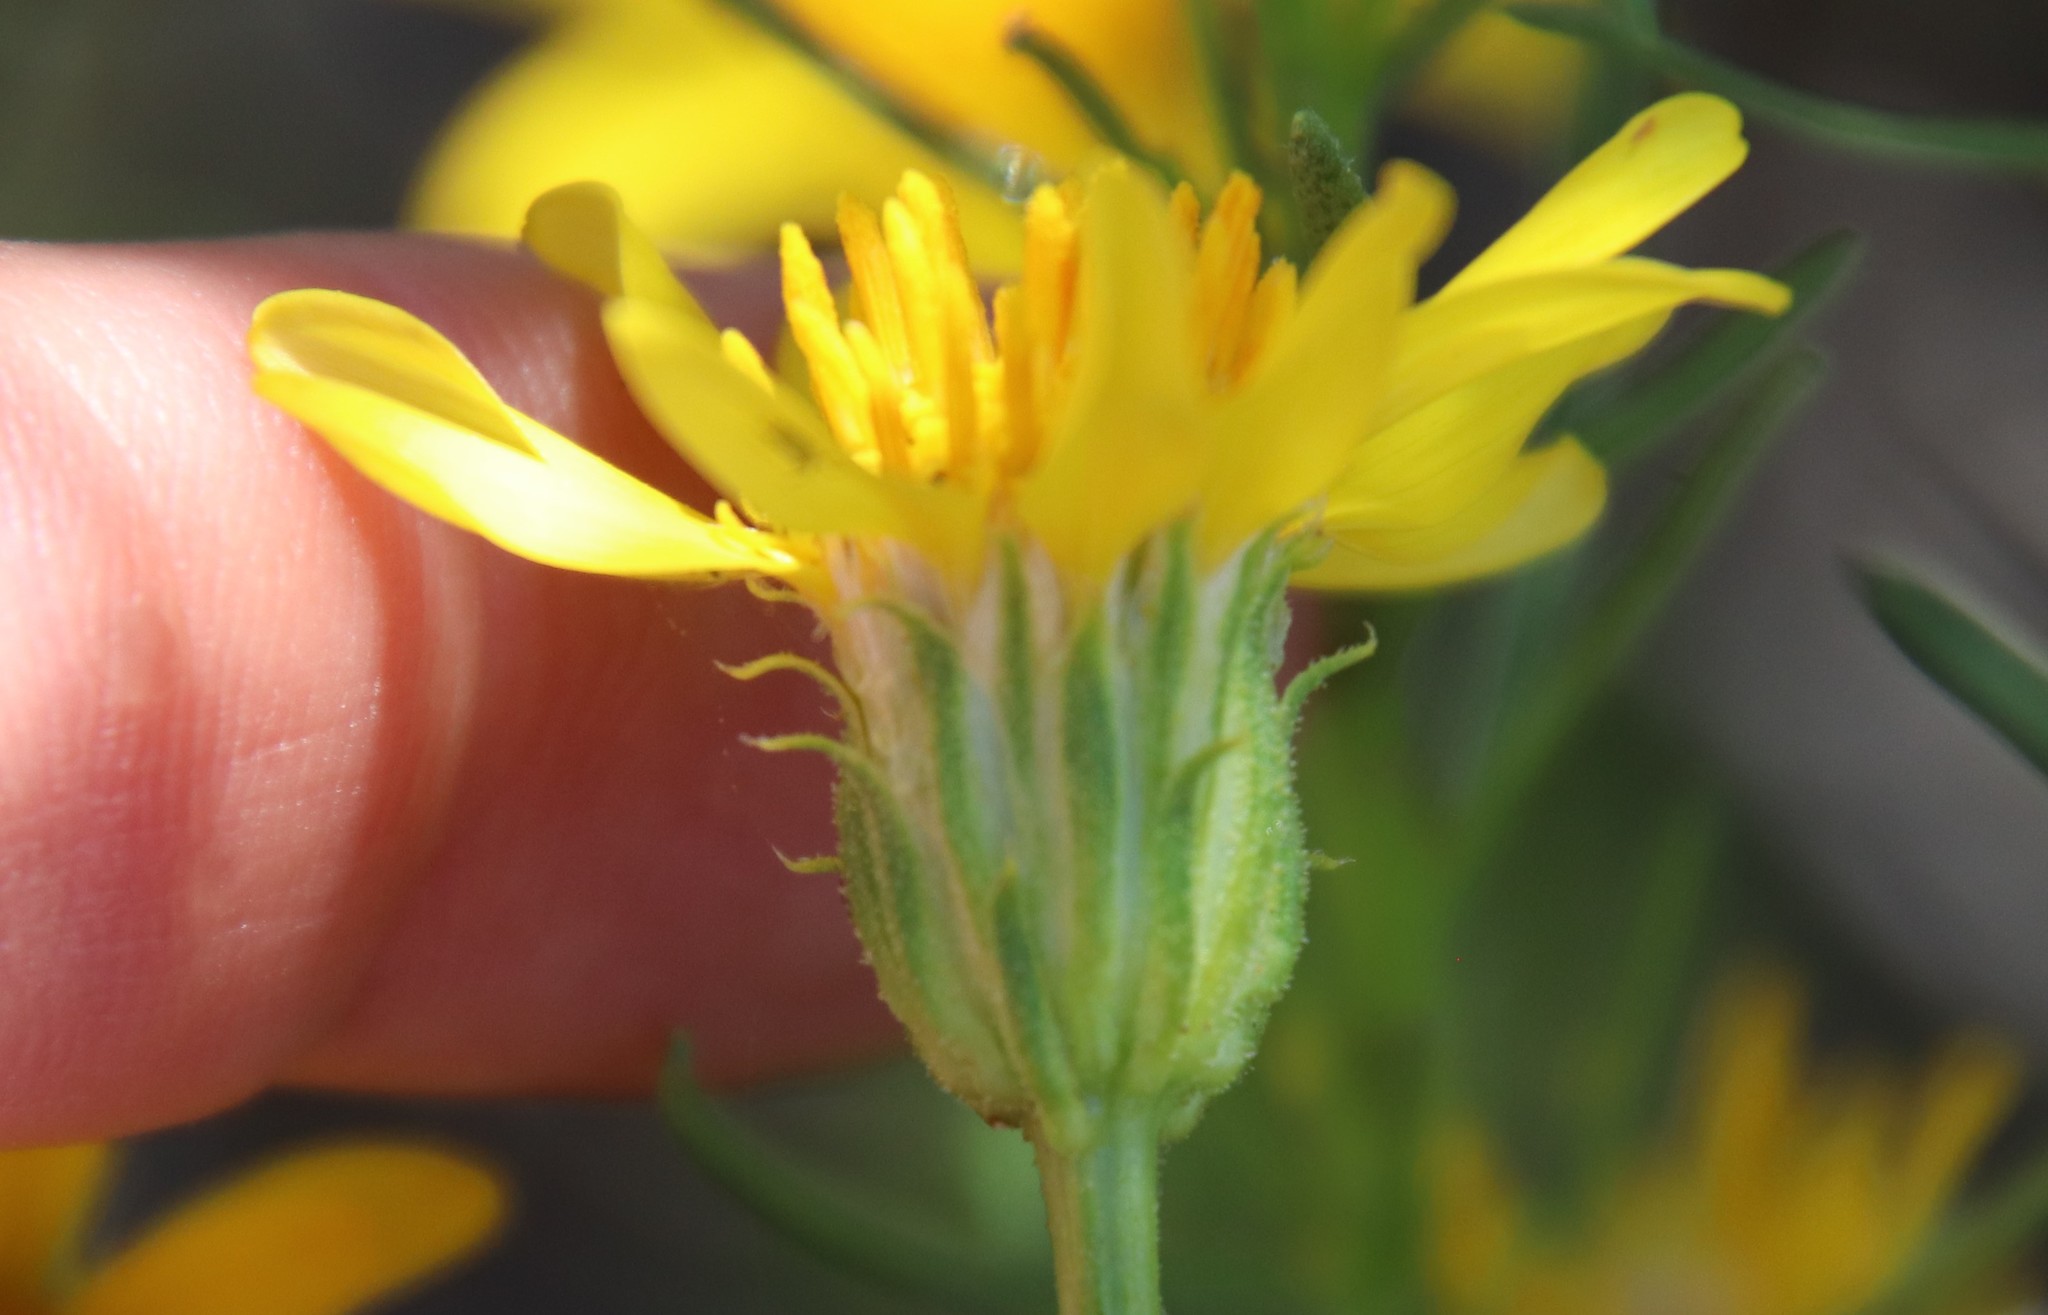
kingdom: Plantae
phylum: Tracheophyta
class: Magnoliopsida
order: Asterales
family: Asteraceae
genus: Ericameria
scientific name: Ericameria linearifolia
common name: Interior goldenbush
